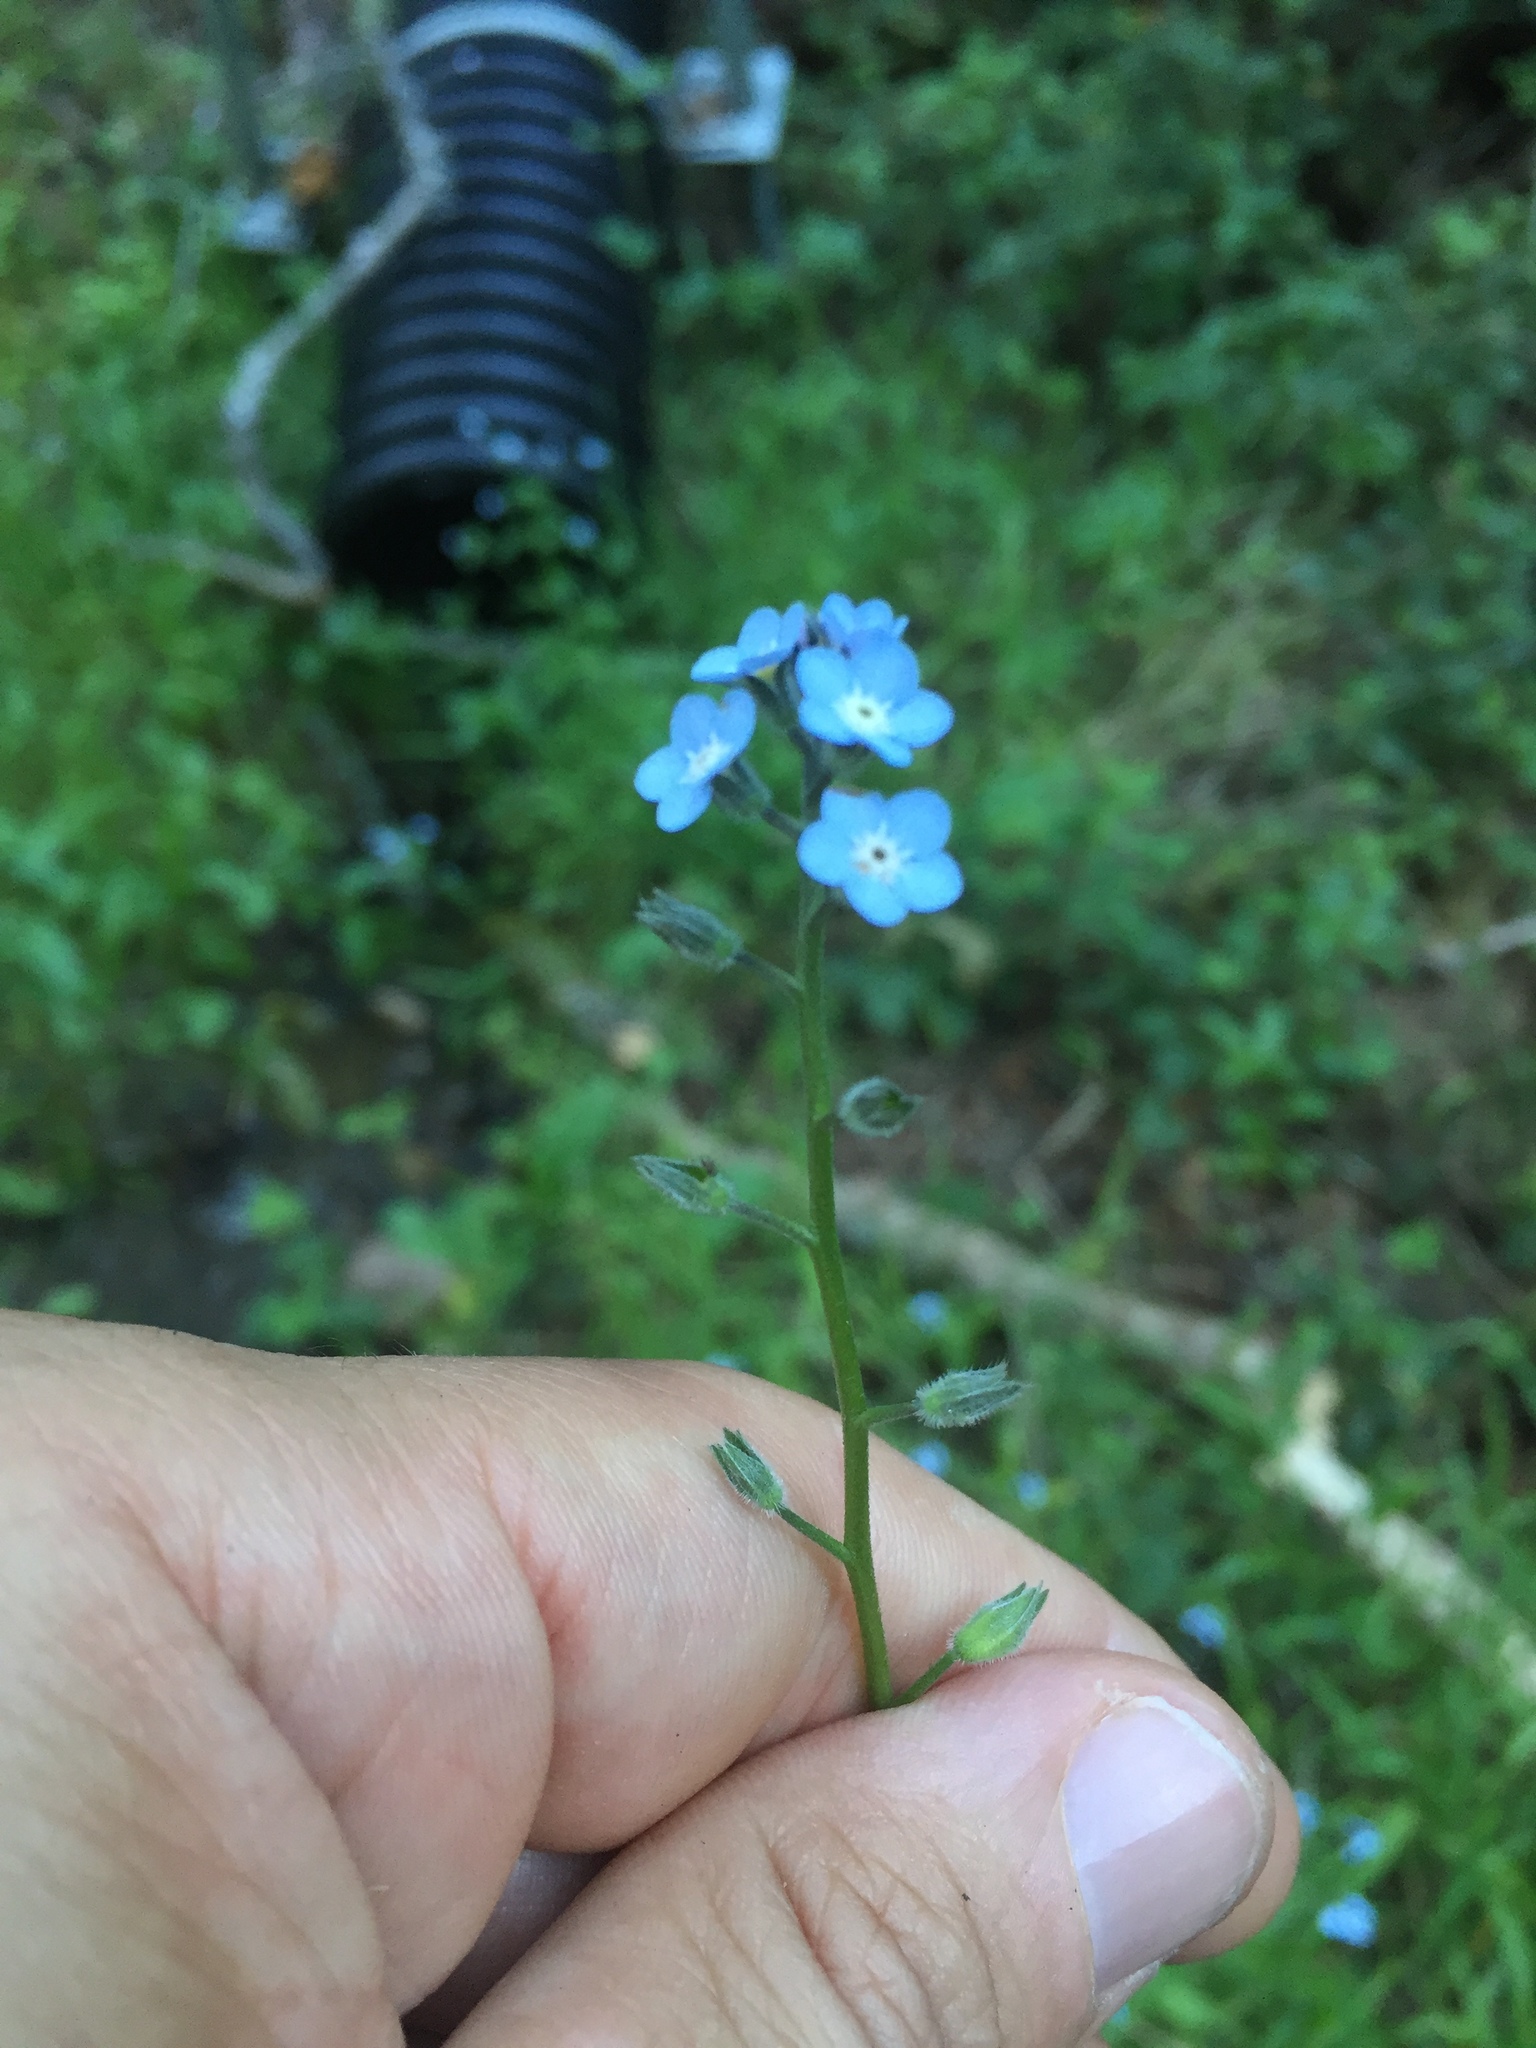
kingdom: Plantae
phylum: Tracheophyta
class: Magnoliopsida
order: Boraginales
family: Boraginaceae
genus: Myosotis
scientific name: Myosotis latifolia
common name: Broadleaf forget-me-not
